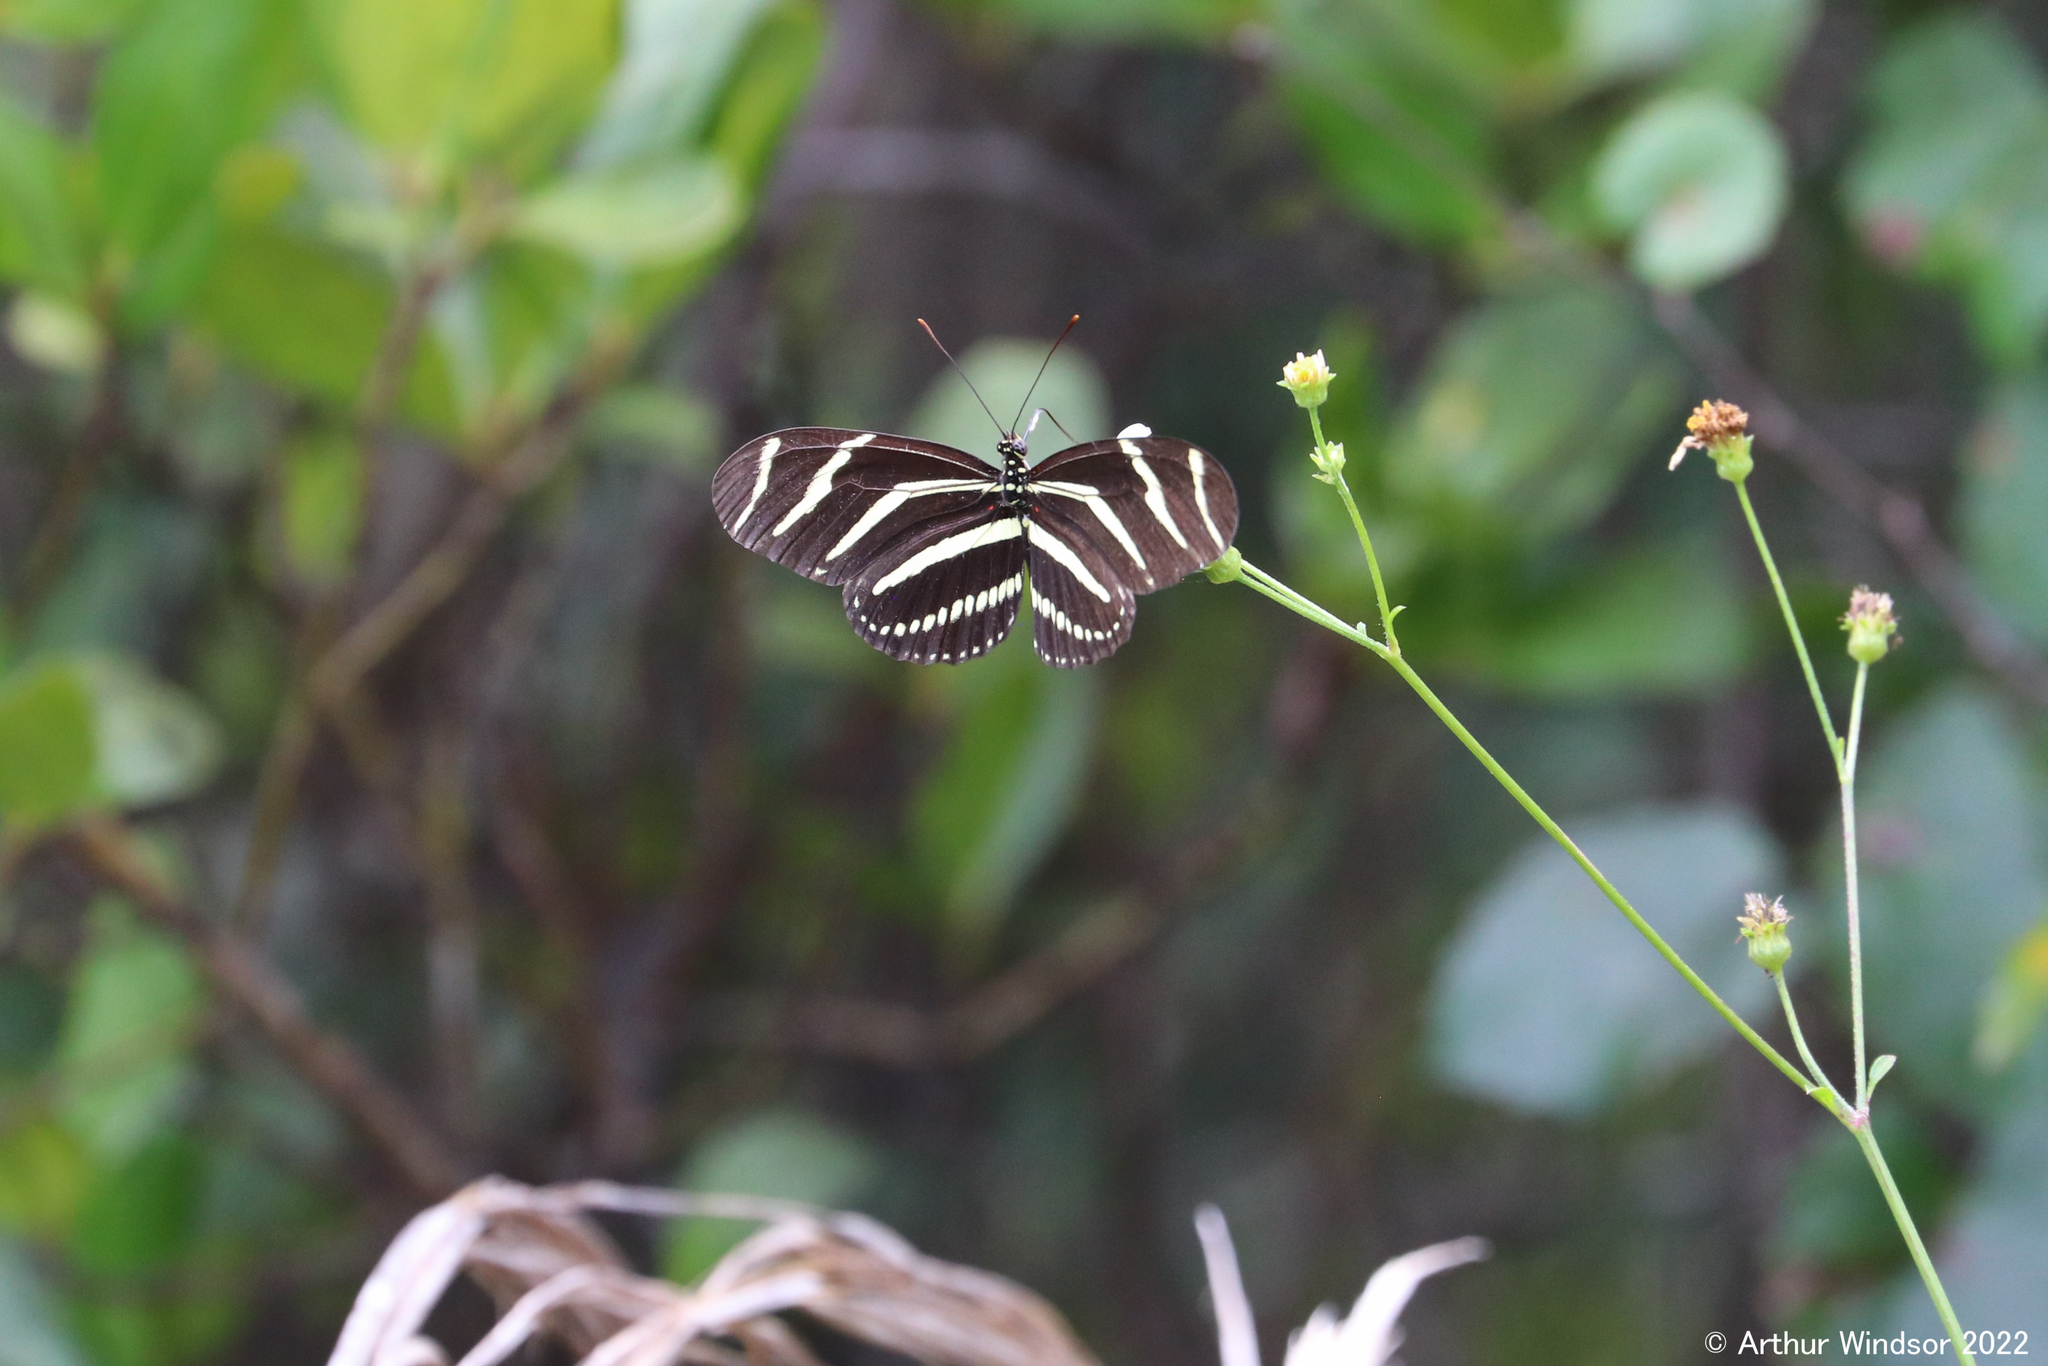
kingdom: Animalia
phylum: Arthropoda
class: Insecta
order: Lepidoptera
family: Nymphalidae
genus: Heliconius
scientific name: Heliconius charithonia
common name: Zebra long wing
